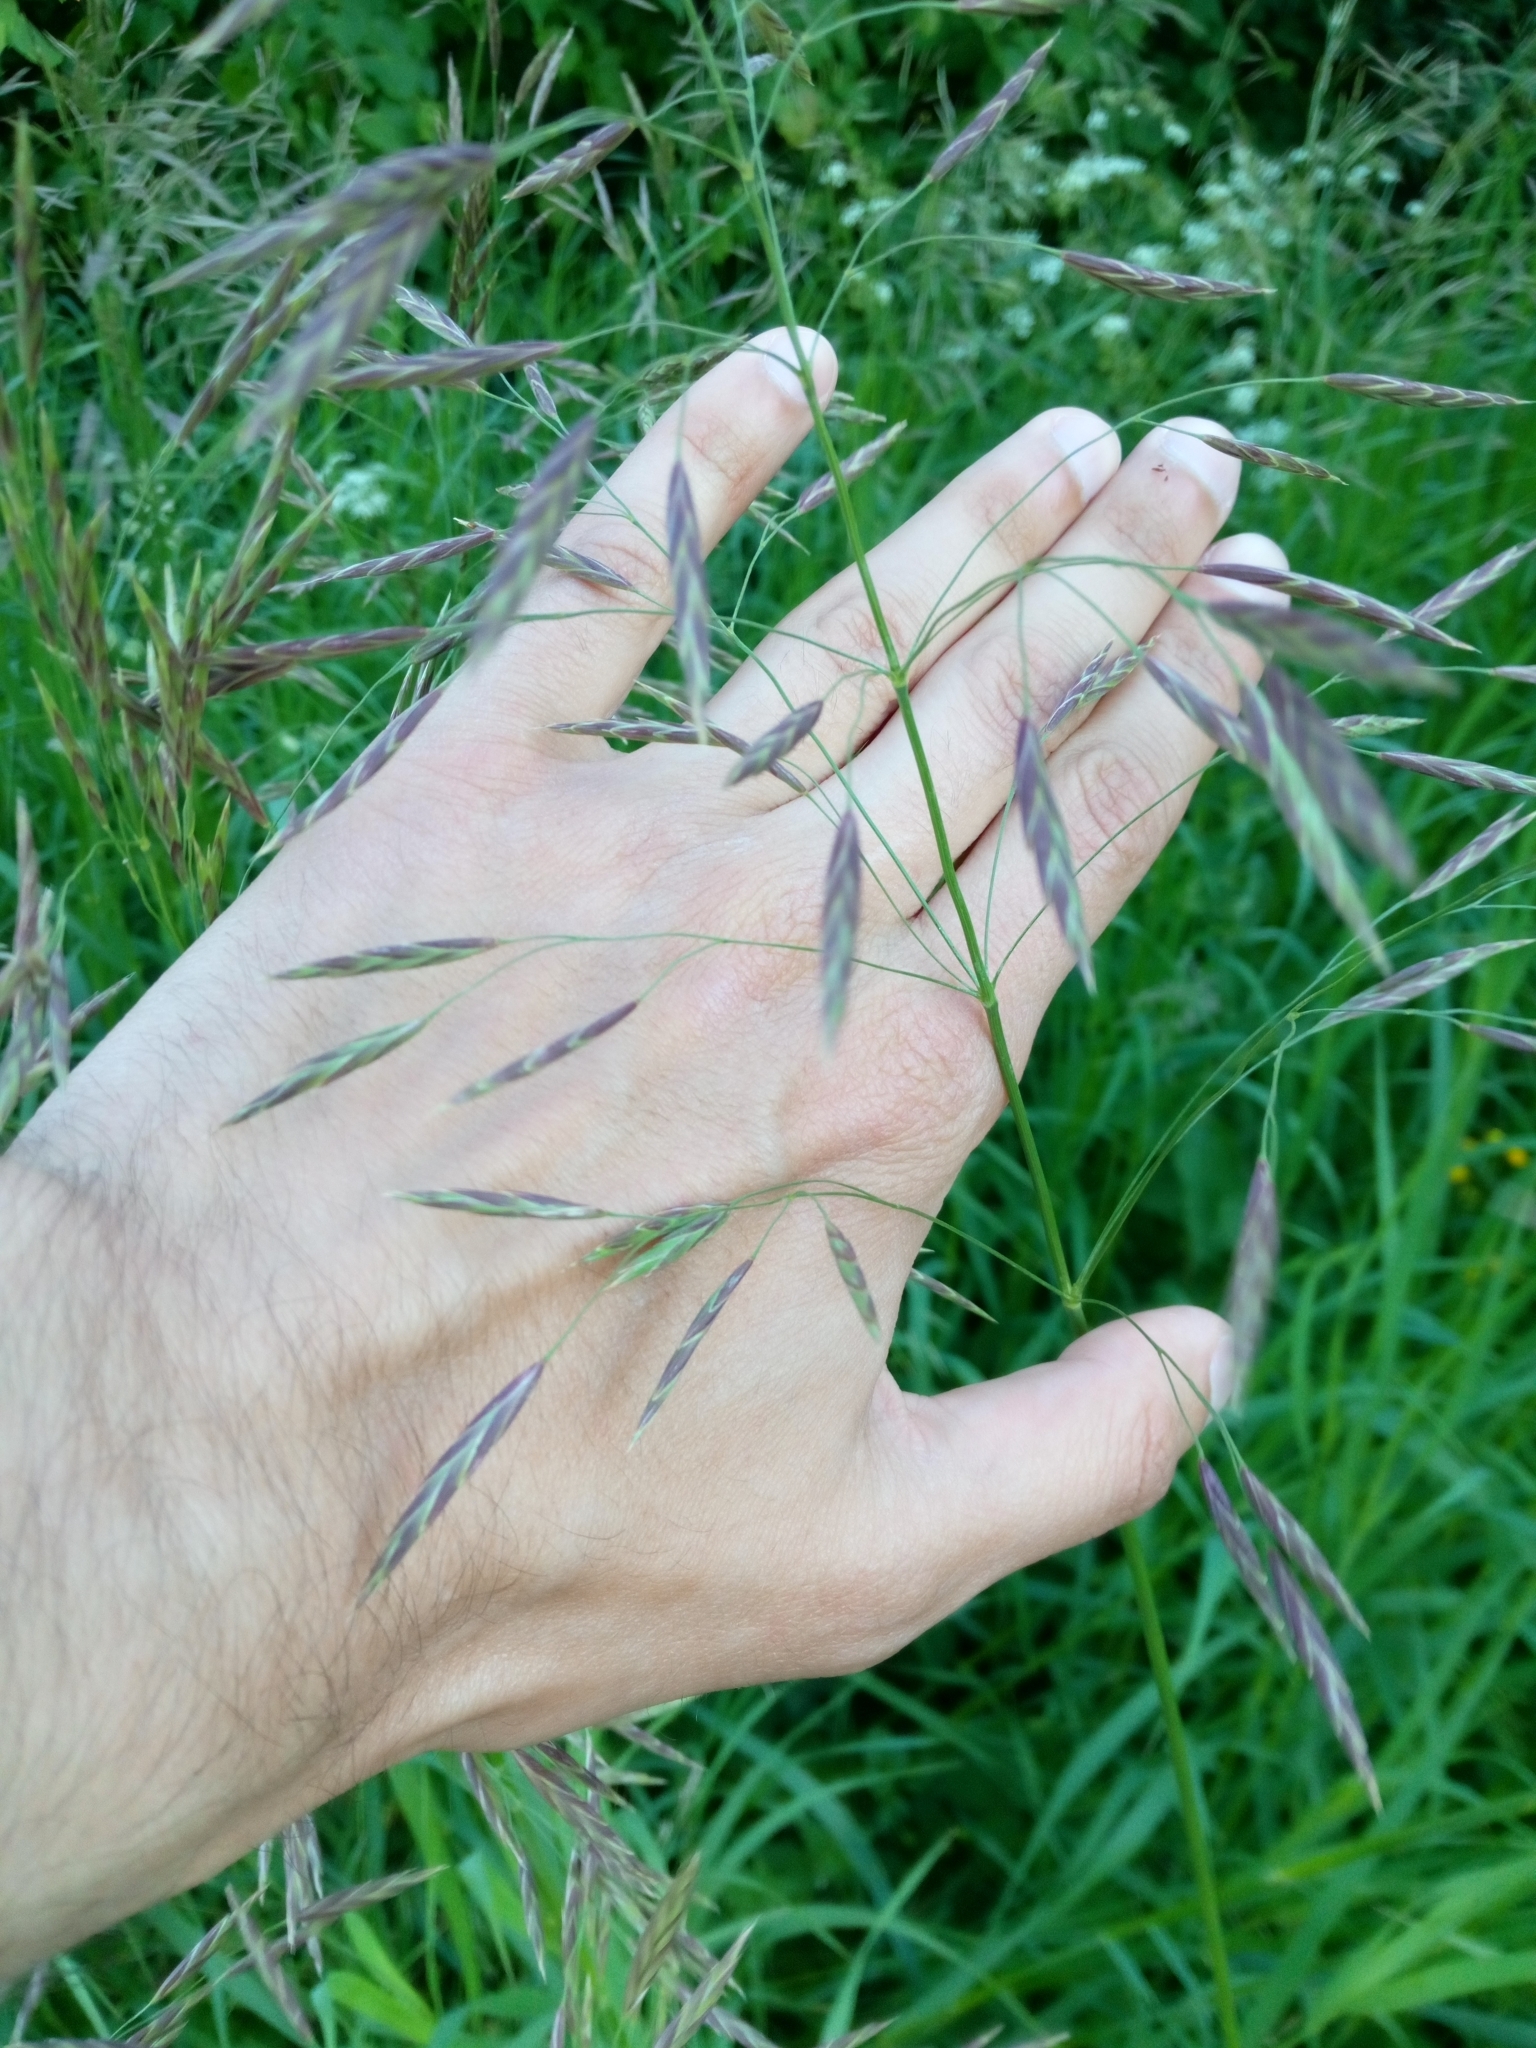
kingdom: Plantae
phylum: Tracheophyta
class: Liliopsida
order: Poales
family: Poaceae
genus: Bromus
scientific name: Bromus inermis
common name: Smooth brome
